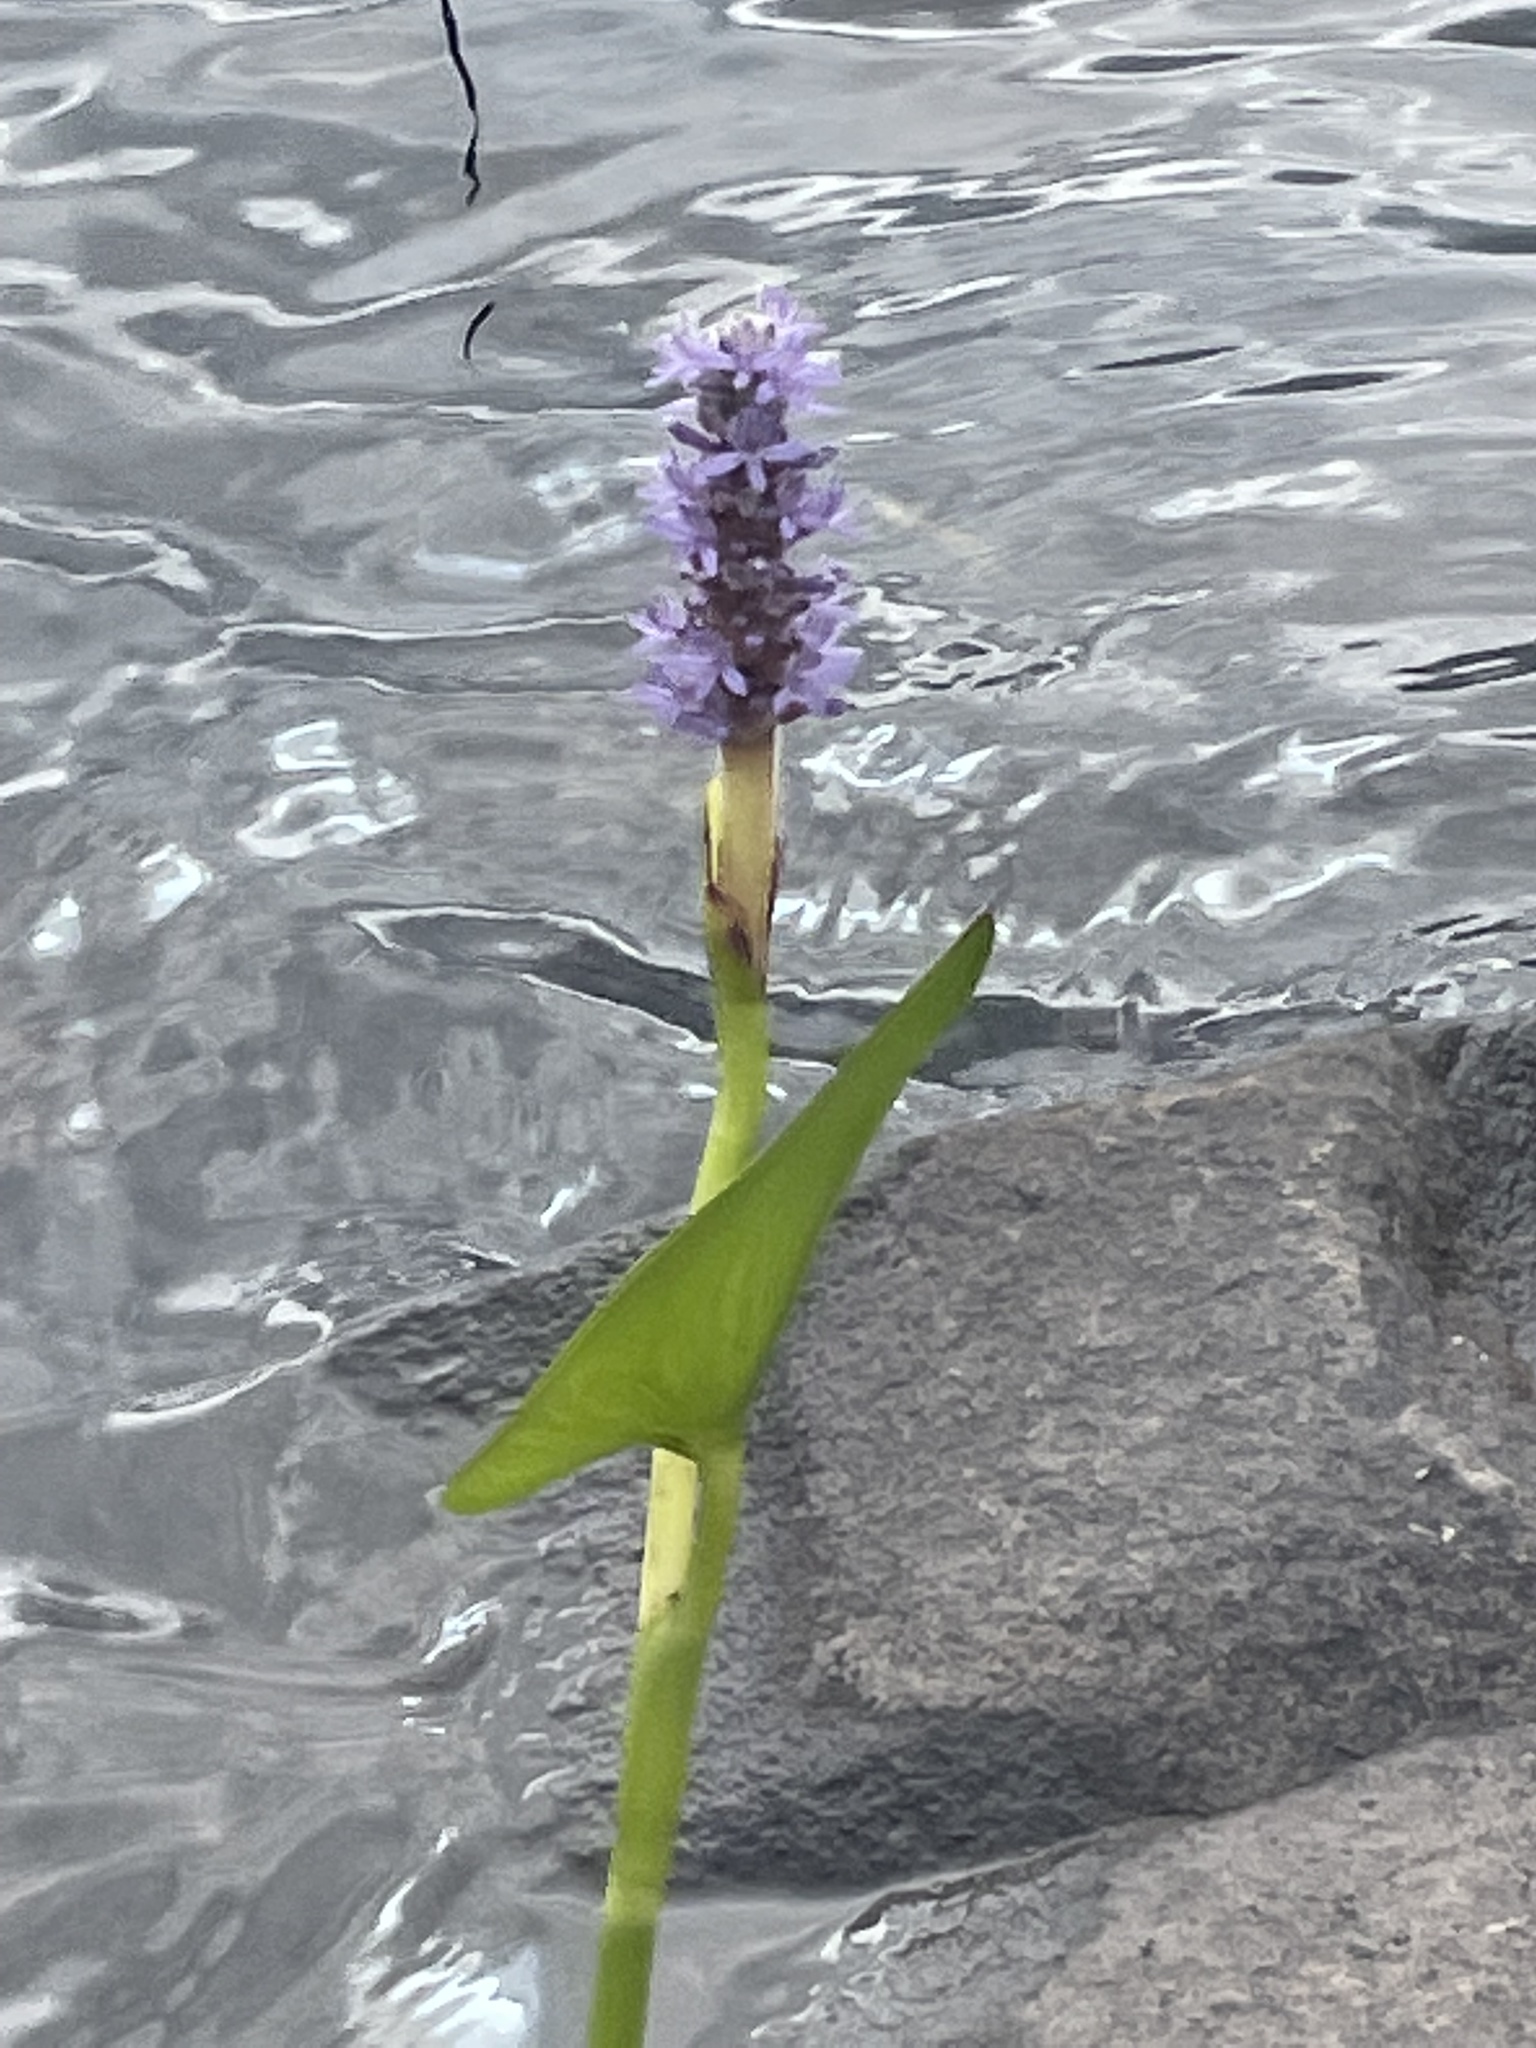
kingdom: Plantae
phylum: Tracheophyta
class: Liliopsida
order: Commelinales
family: Pontederiaceae
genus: Pontederia
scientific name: Pontederia cordata
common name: Pickerelweed
